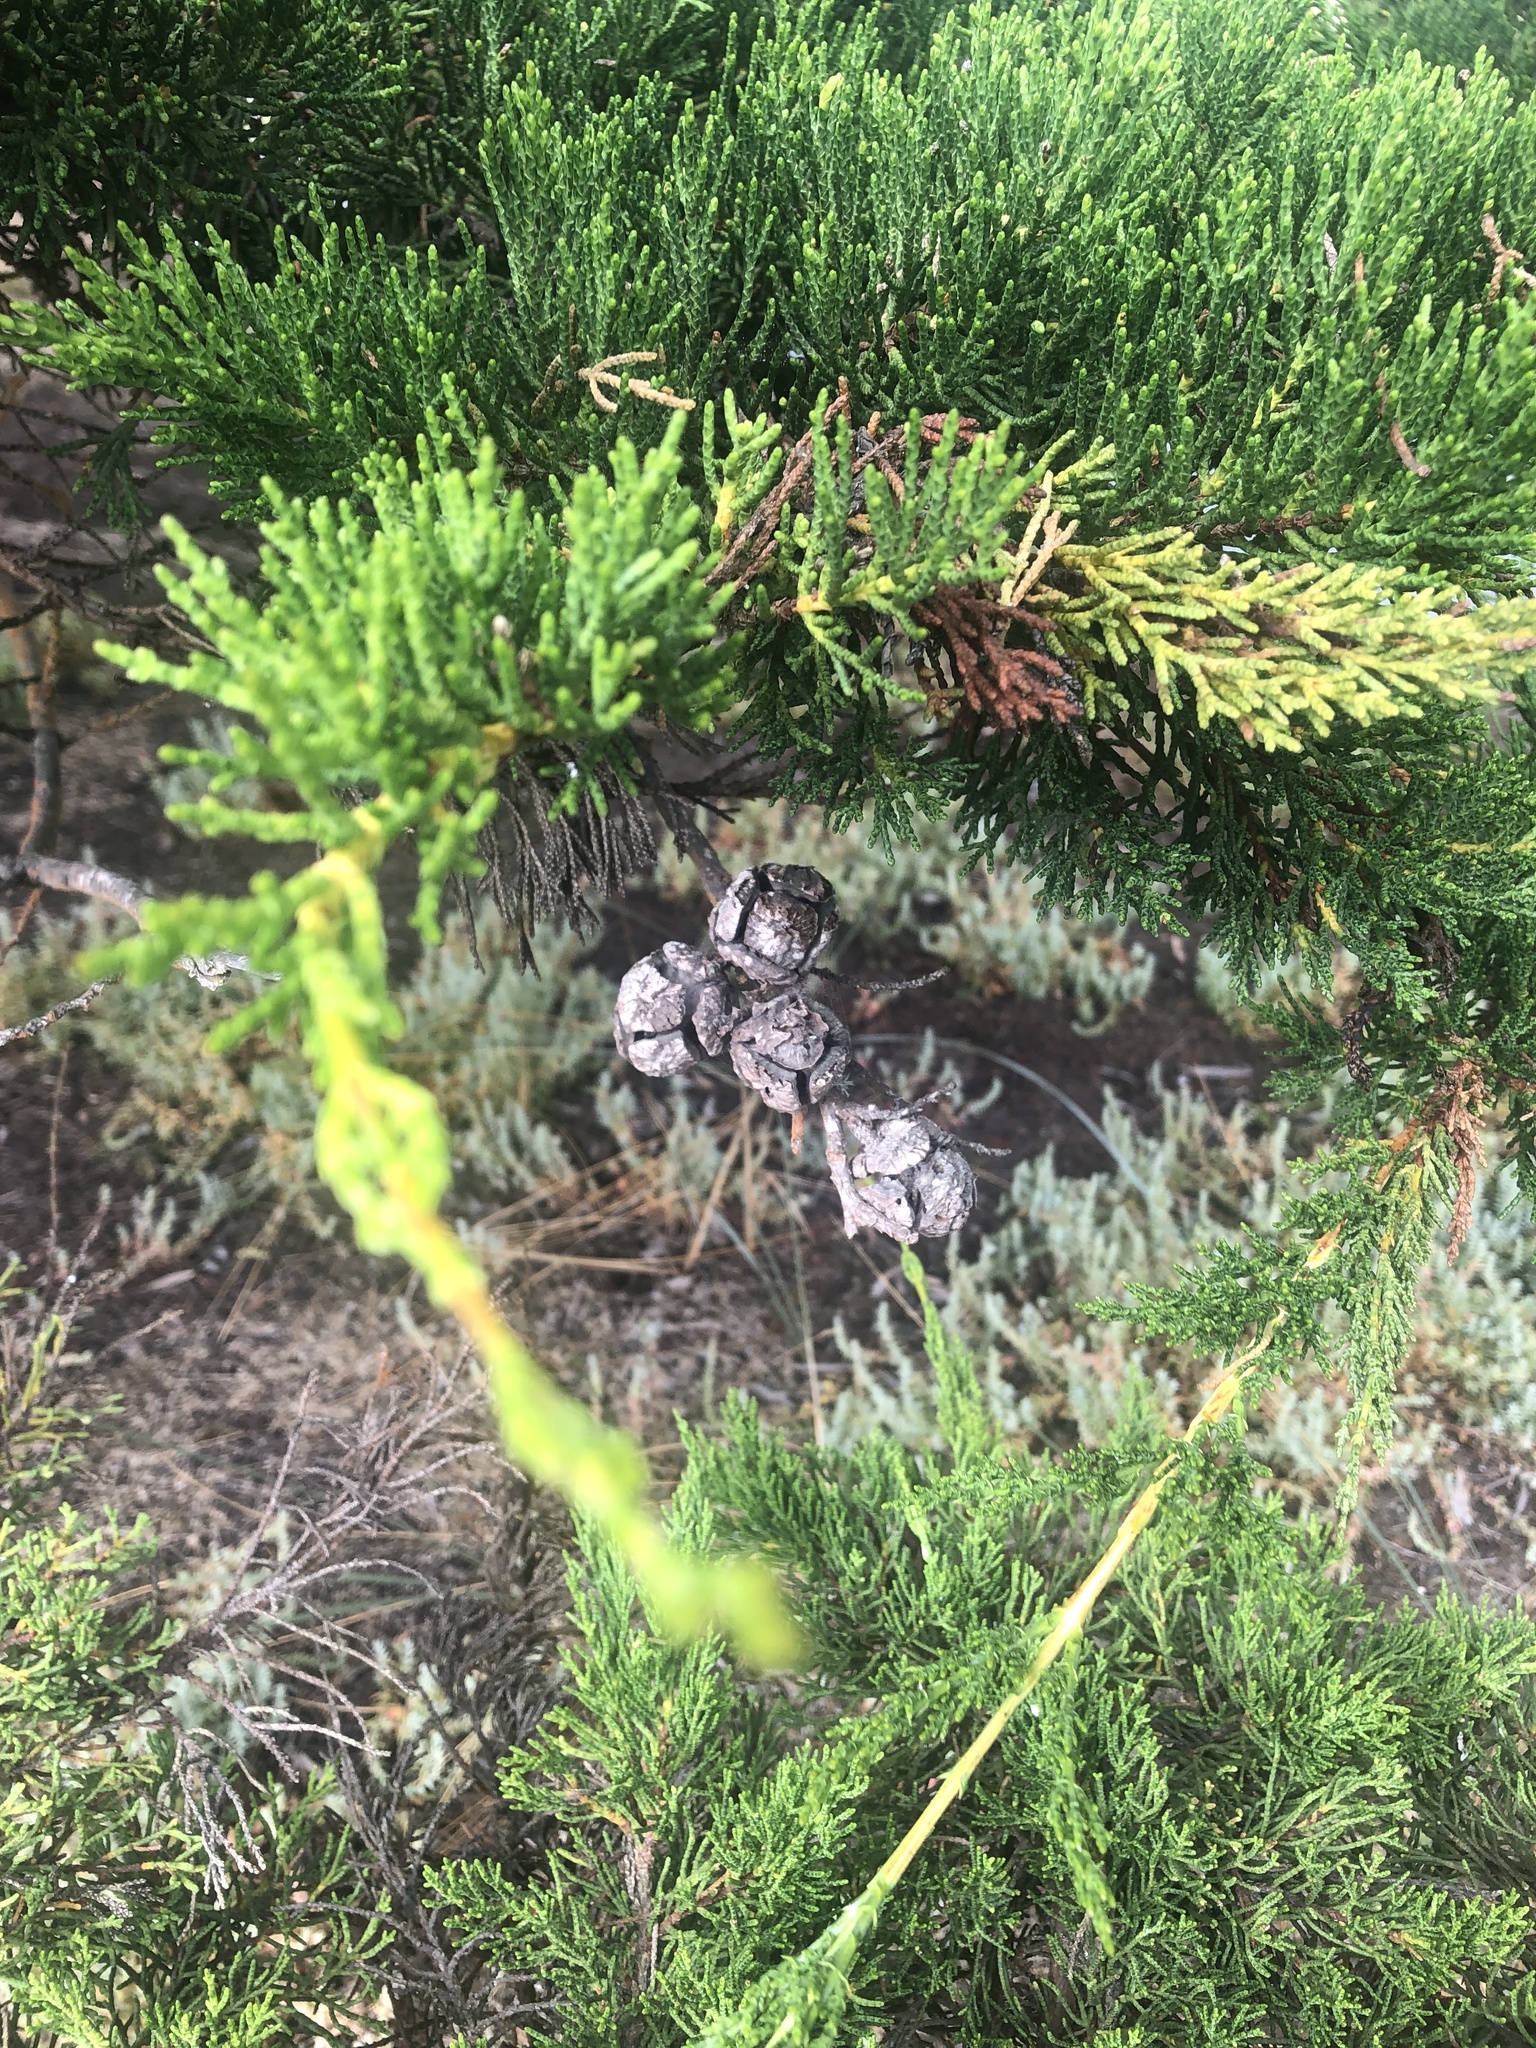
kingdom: Plantae
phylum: Tracheophyta
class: Pinopsida
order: Pinales
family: Cupressaceae
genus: Cupressus
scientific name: Cupressus macrocarpa
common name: Monterey cypress
